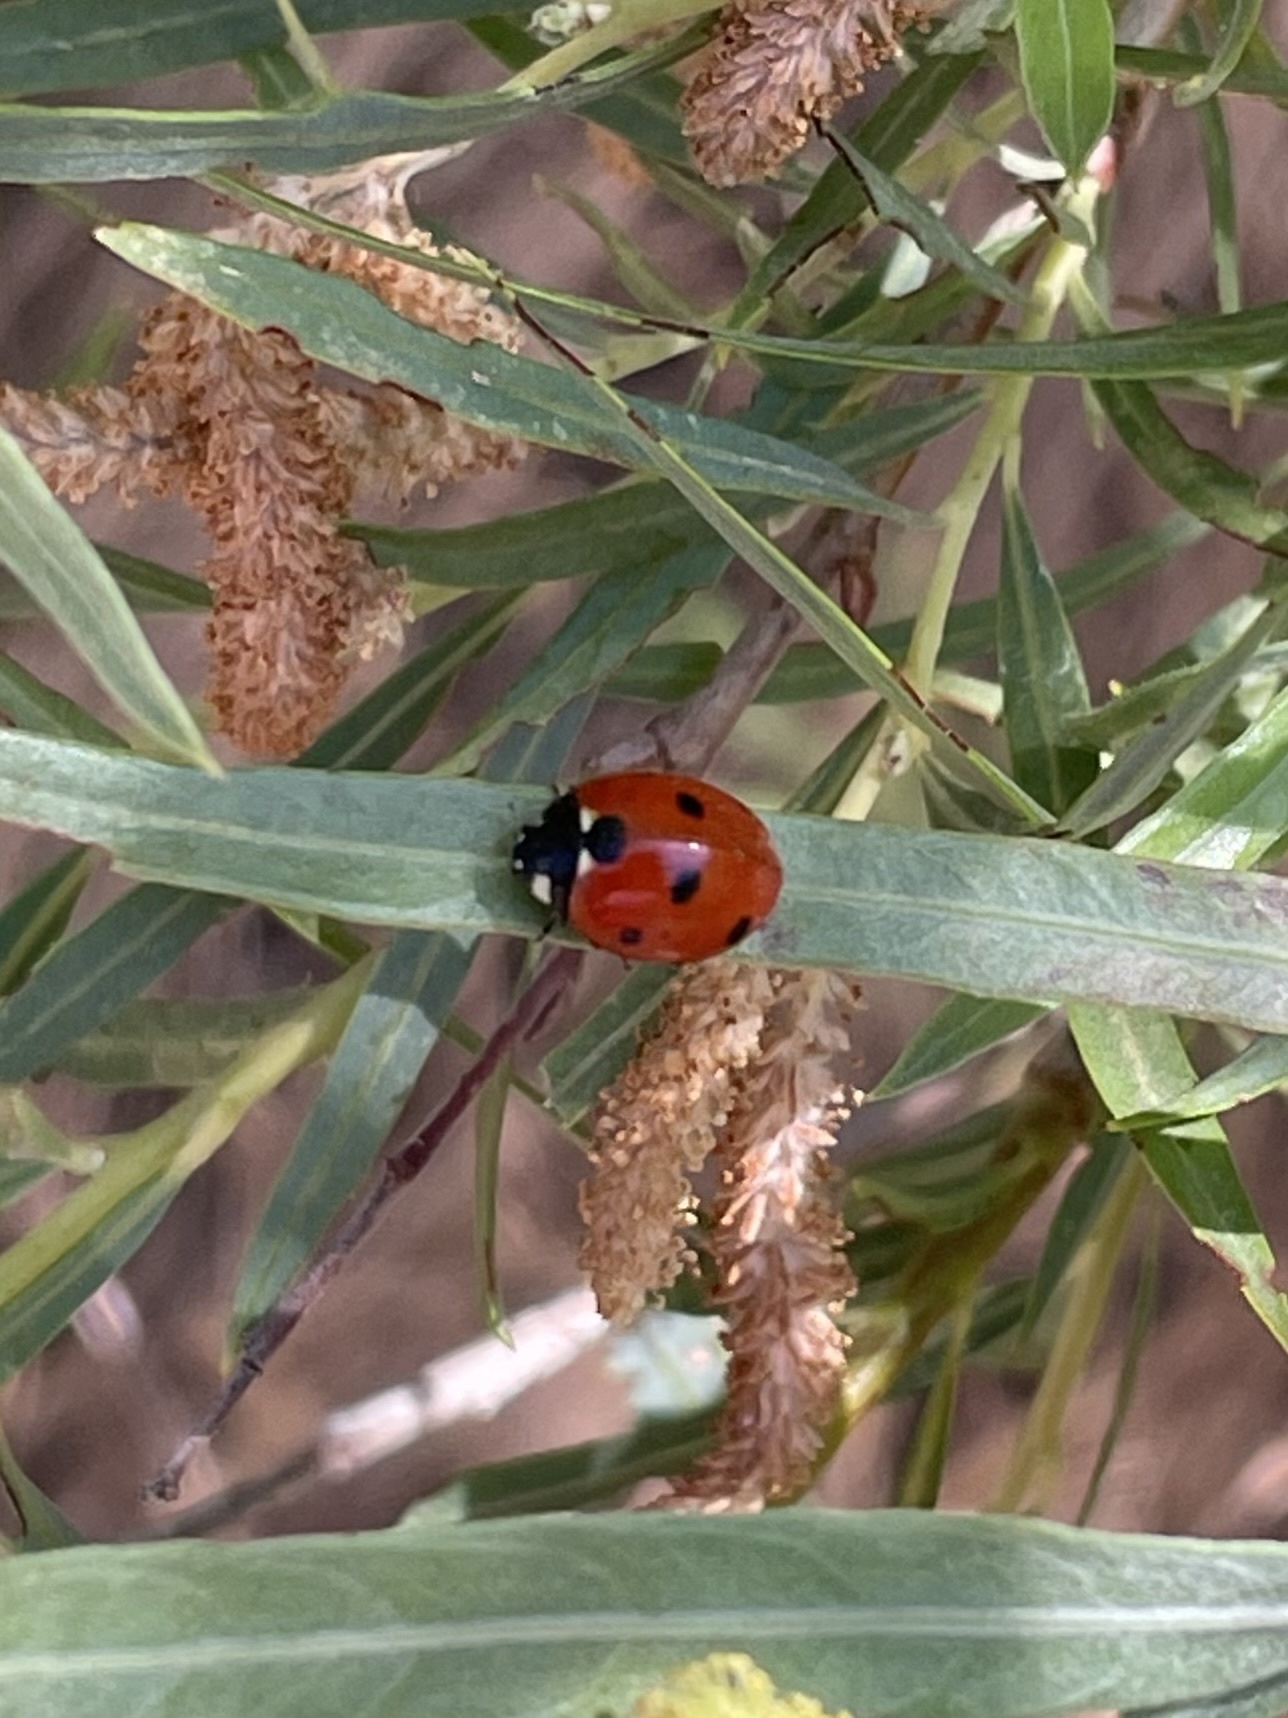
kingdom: Animalia
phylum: Arthropoda
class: Insecta
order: Coleoptera
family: Coccinellidae
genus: Coccinella
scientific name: Coccinella septempunctata
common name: Sevenspotted lady beetle
